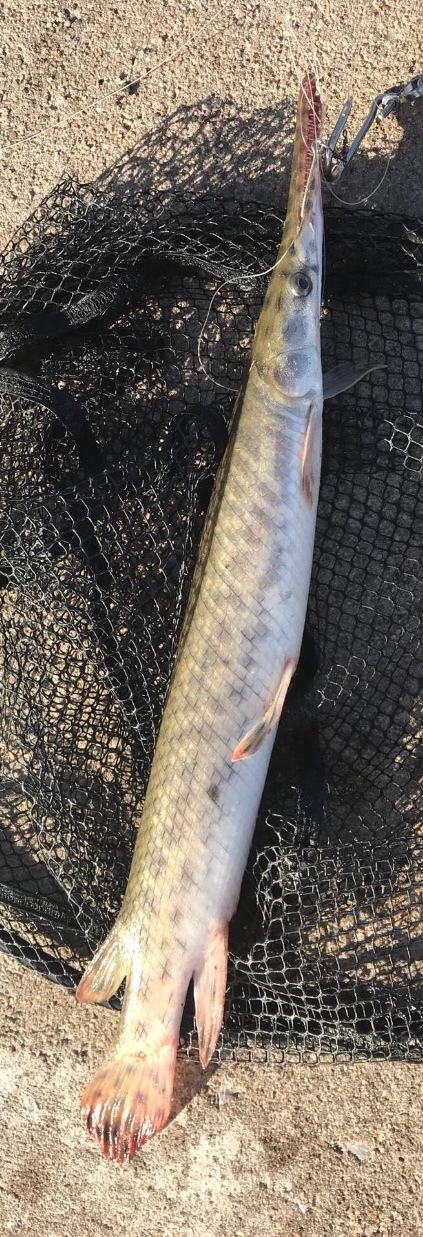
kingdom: Animalia
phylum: Chordata
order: Lepisosteiformes
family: Lepisosteidae
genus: Lepisosteus
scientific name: Lepisosteus oculatus
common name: Spotted gar
